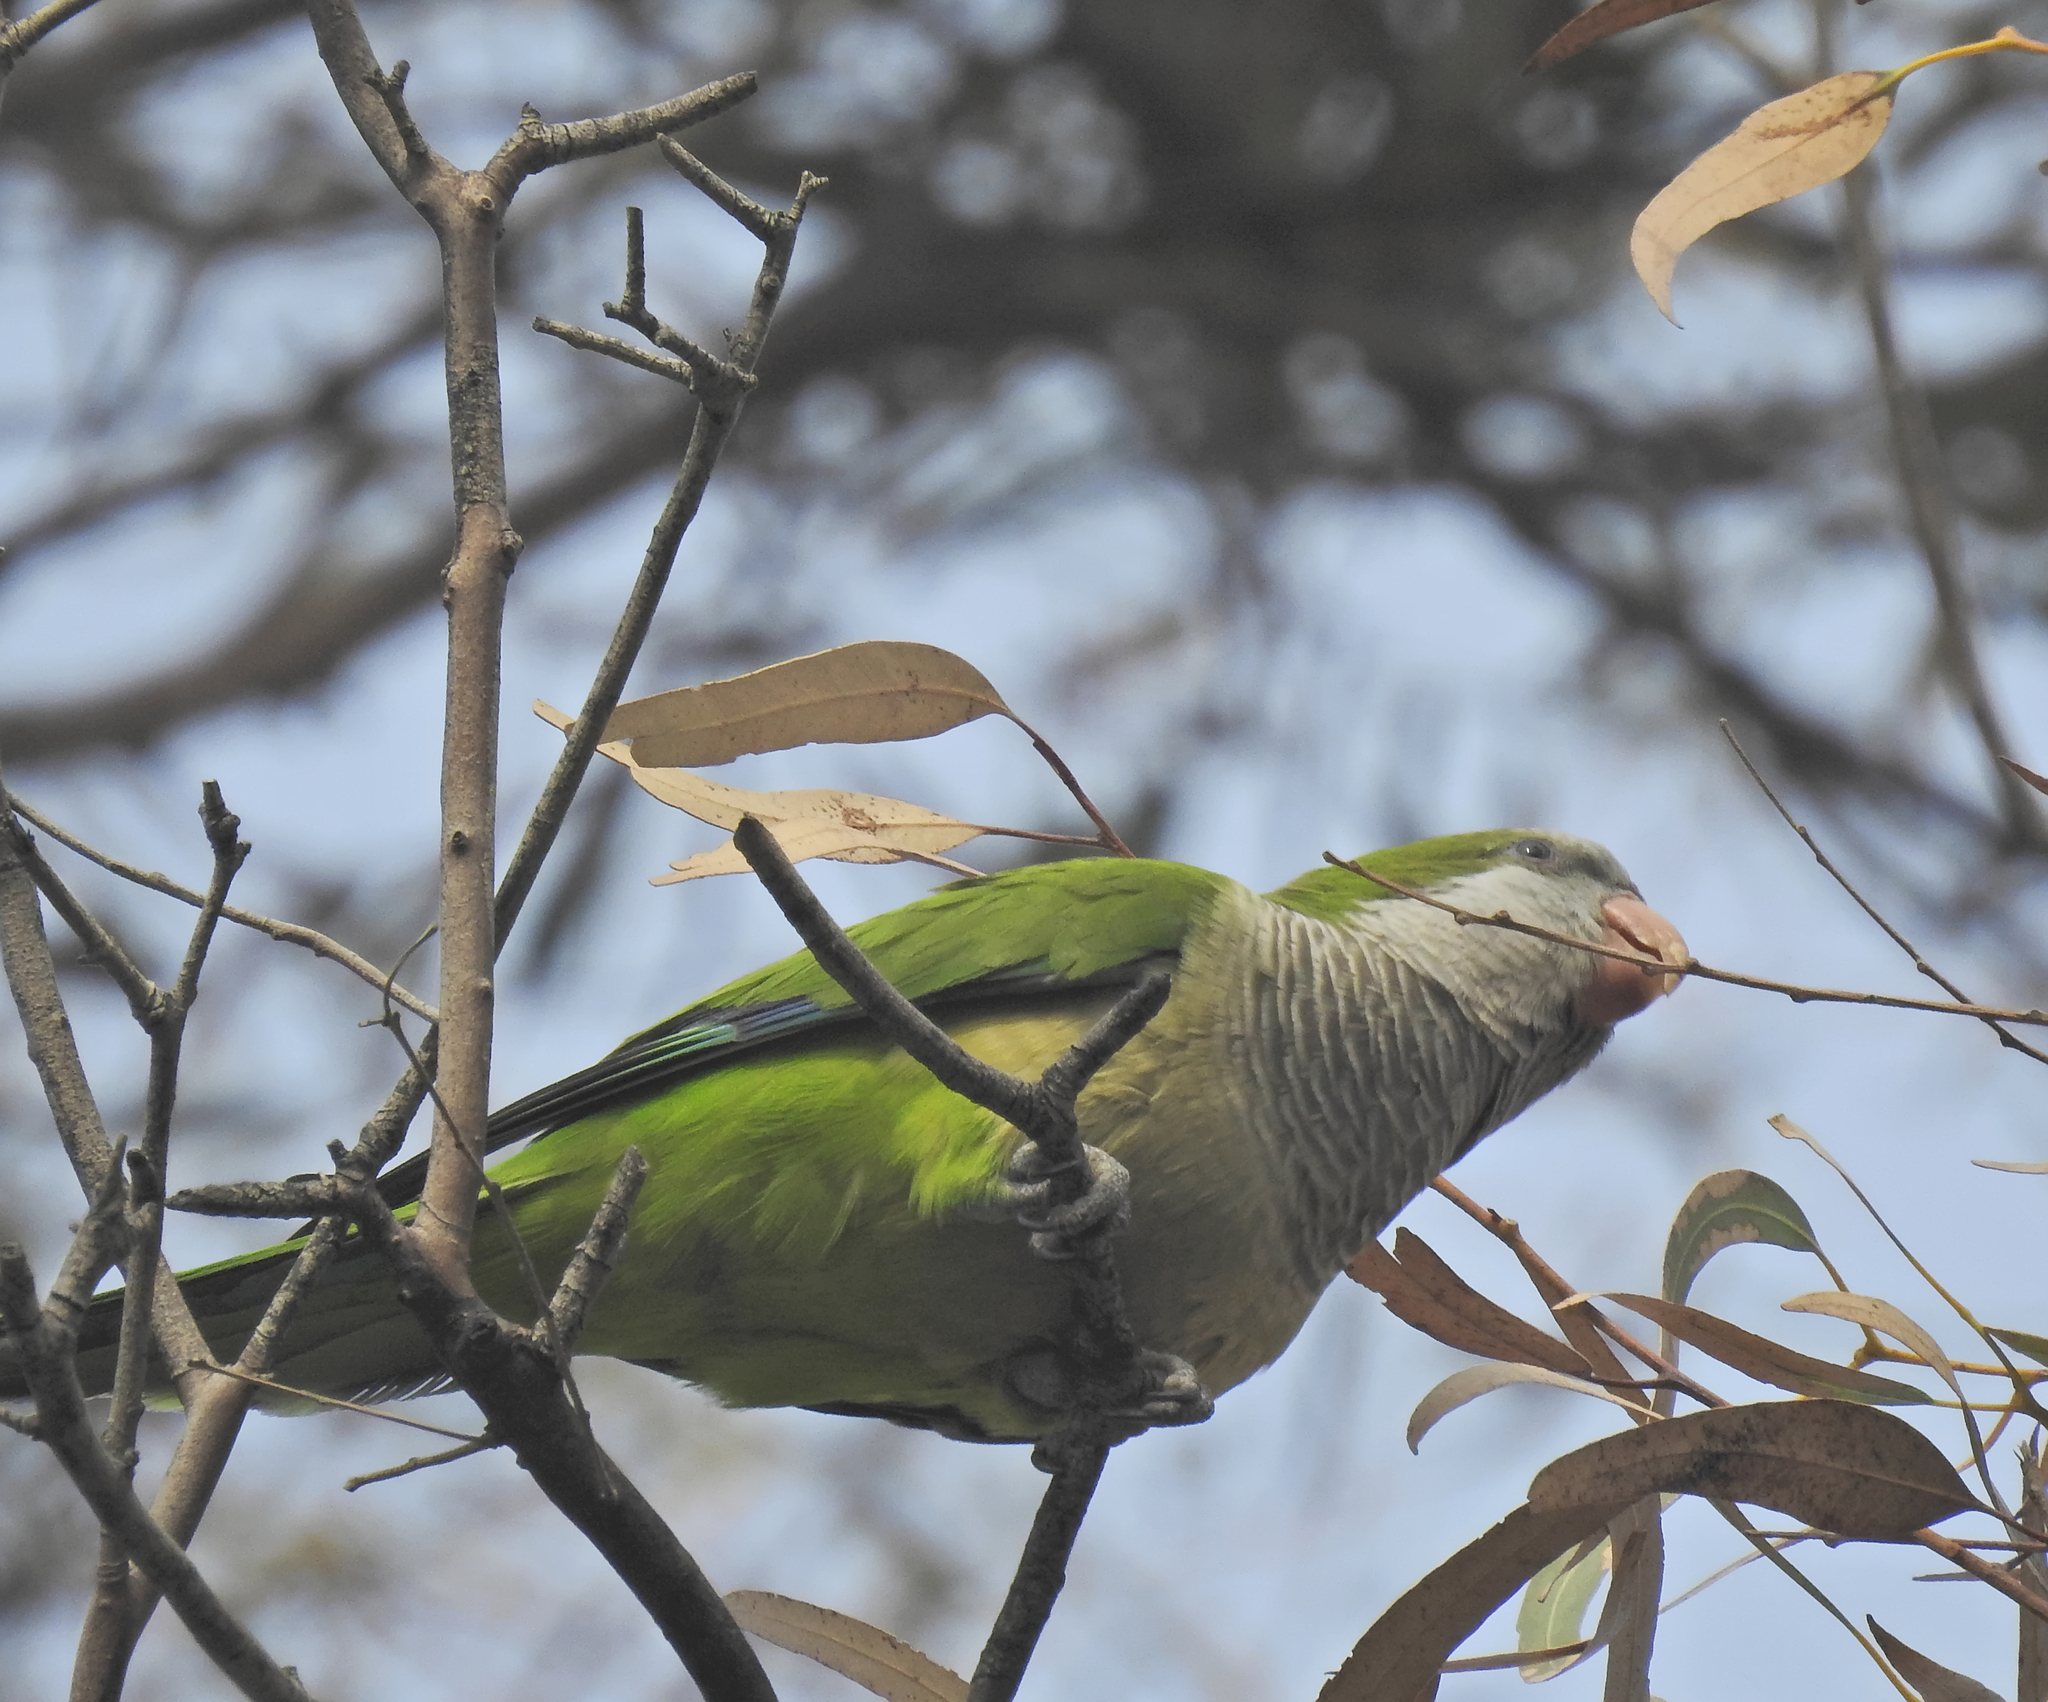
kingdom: Animalia
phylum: Chordata
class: Aves
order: Psittaciformes
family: Psittacidae
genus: Myiopsitta
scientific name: Myiopsitta monachus
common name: Monk parakeet
